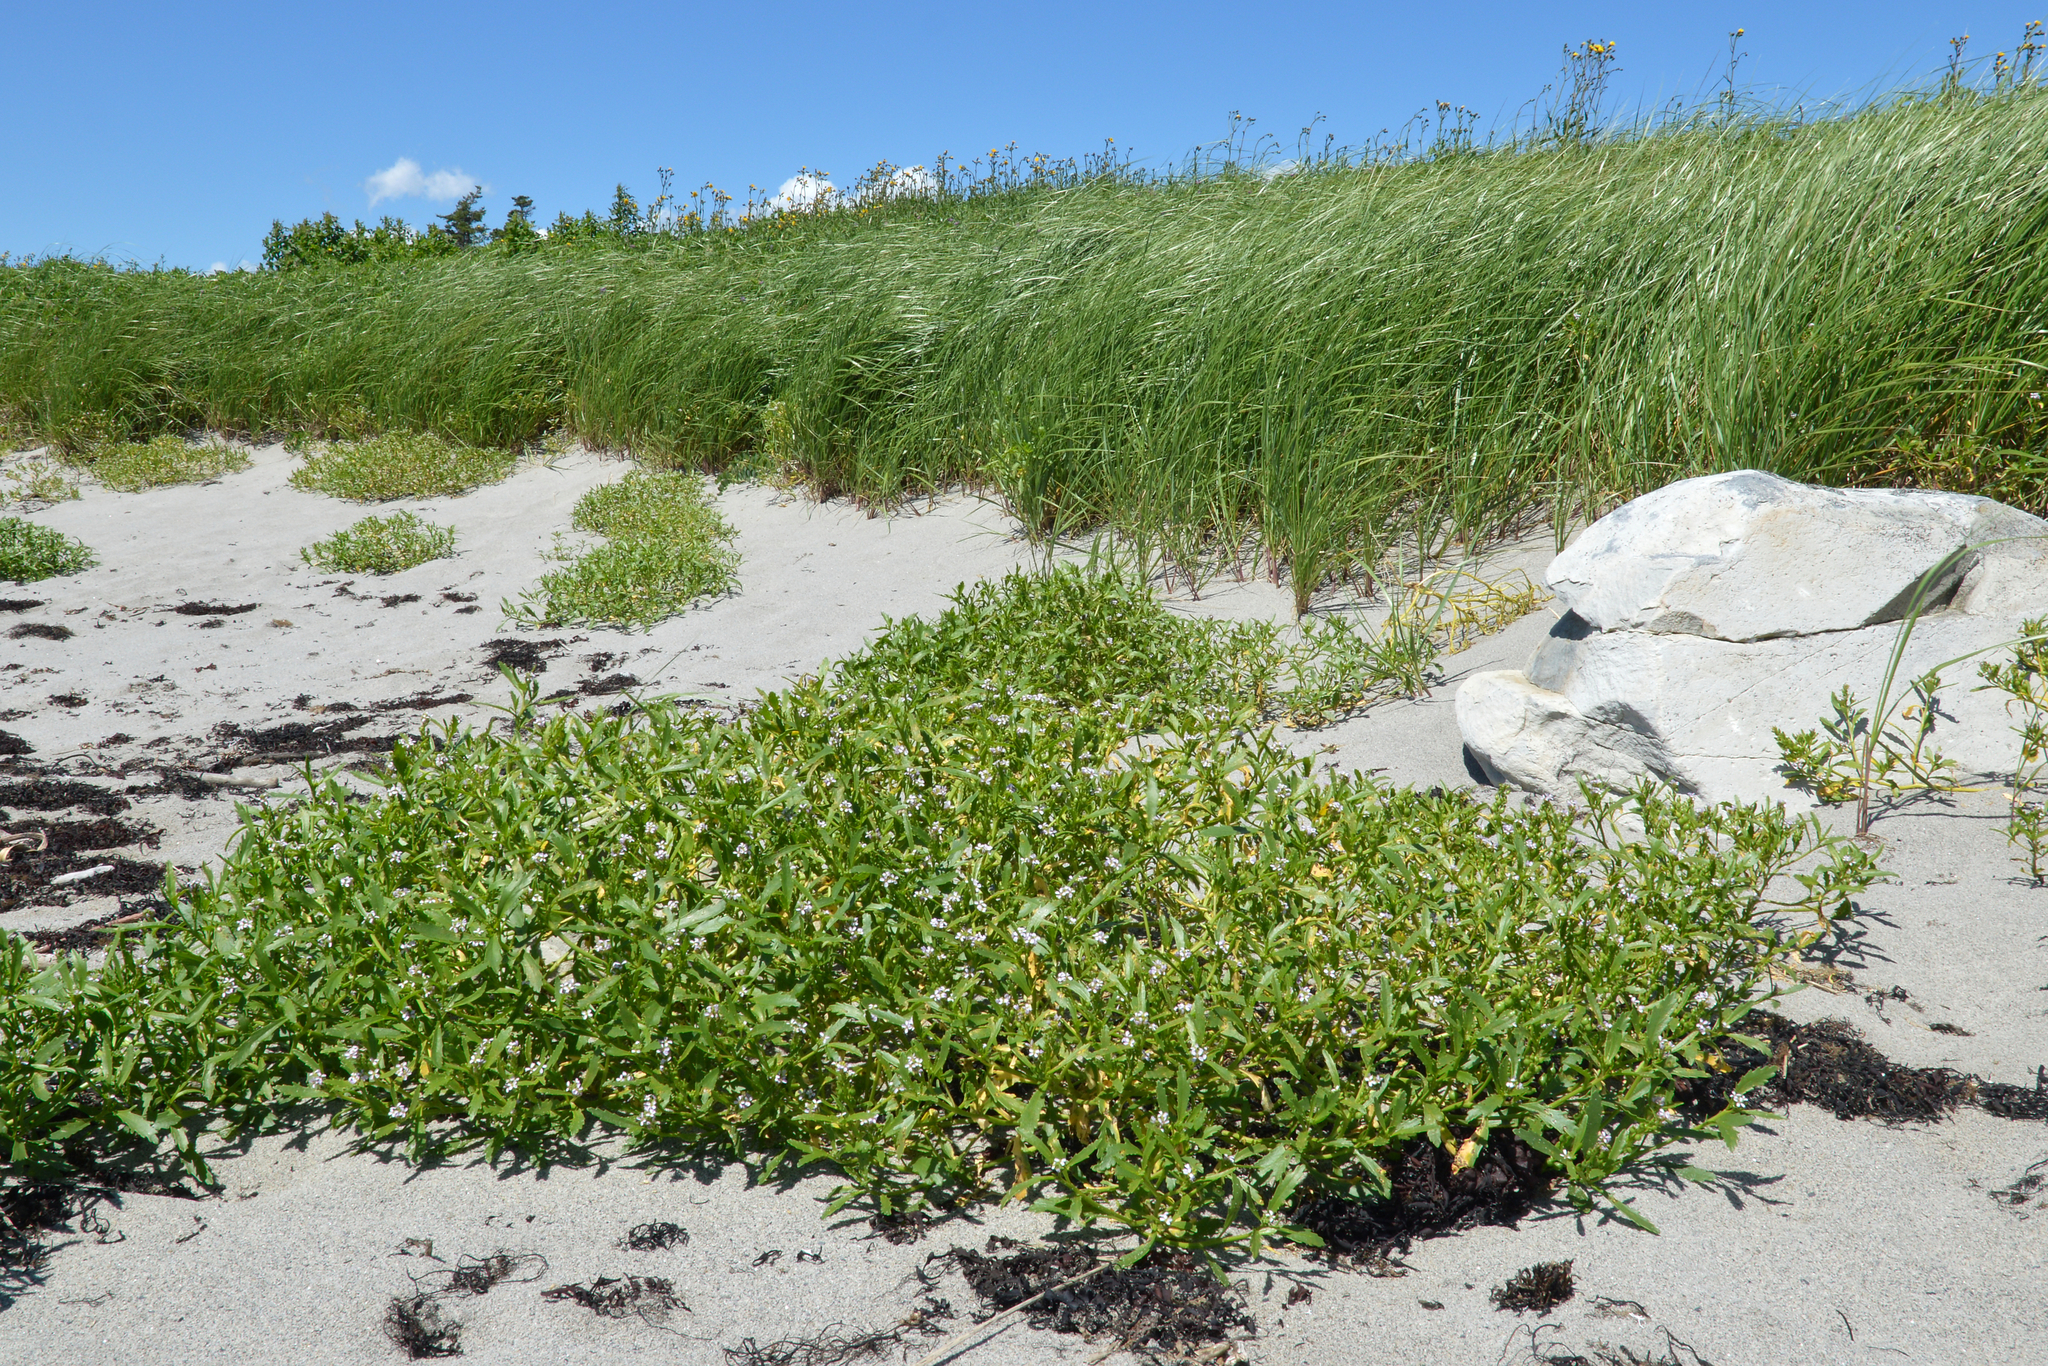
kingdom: Plantae
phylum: Tracheophyta
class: Magnoliopsida
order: Brassicales
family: Brassicaceae
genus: Cakile
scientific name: Cakile edentula
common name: American sea rocket
